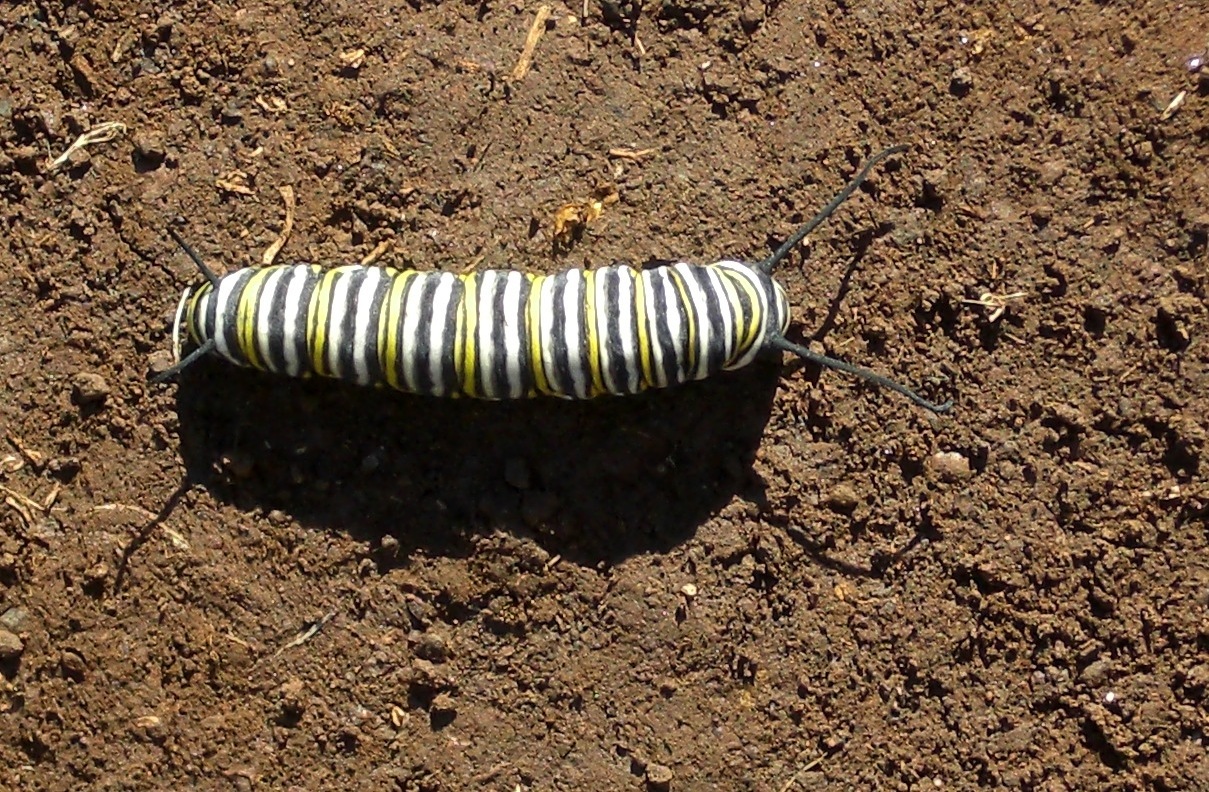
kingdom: Animalia
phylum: Arthropoda
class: Insecta
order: Lepidoptera
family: Nymphalidae
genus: Danaus
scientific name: Danaus plexippus
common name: Monarch
